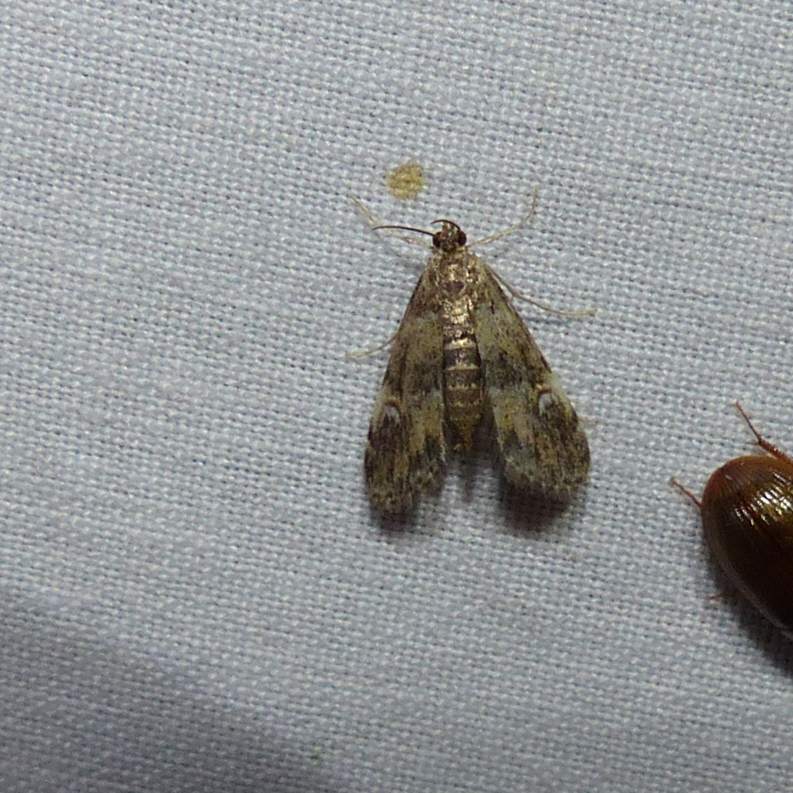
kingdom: Animalia
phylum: Arthropoda
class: Insecta
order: Lepidoptera
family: Crambidae
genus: Elophila
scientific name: Elophila obliteralis
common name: Waterlily leafcutter moth
